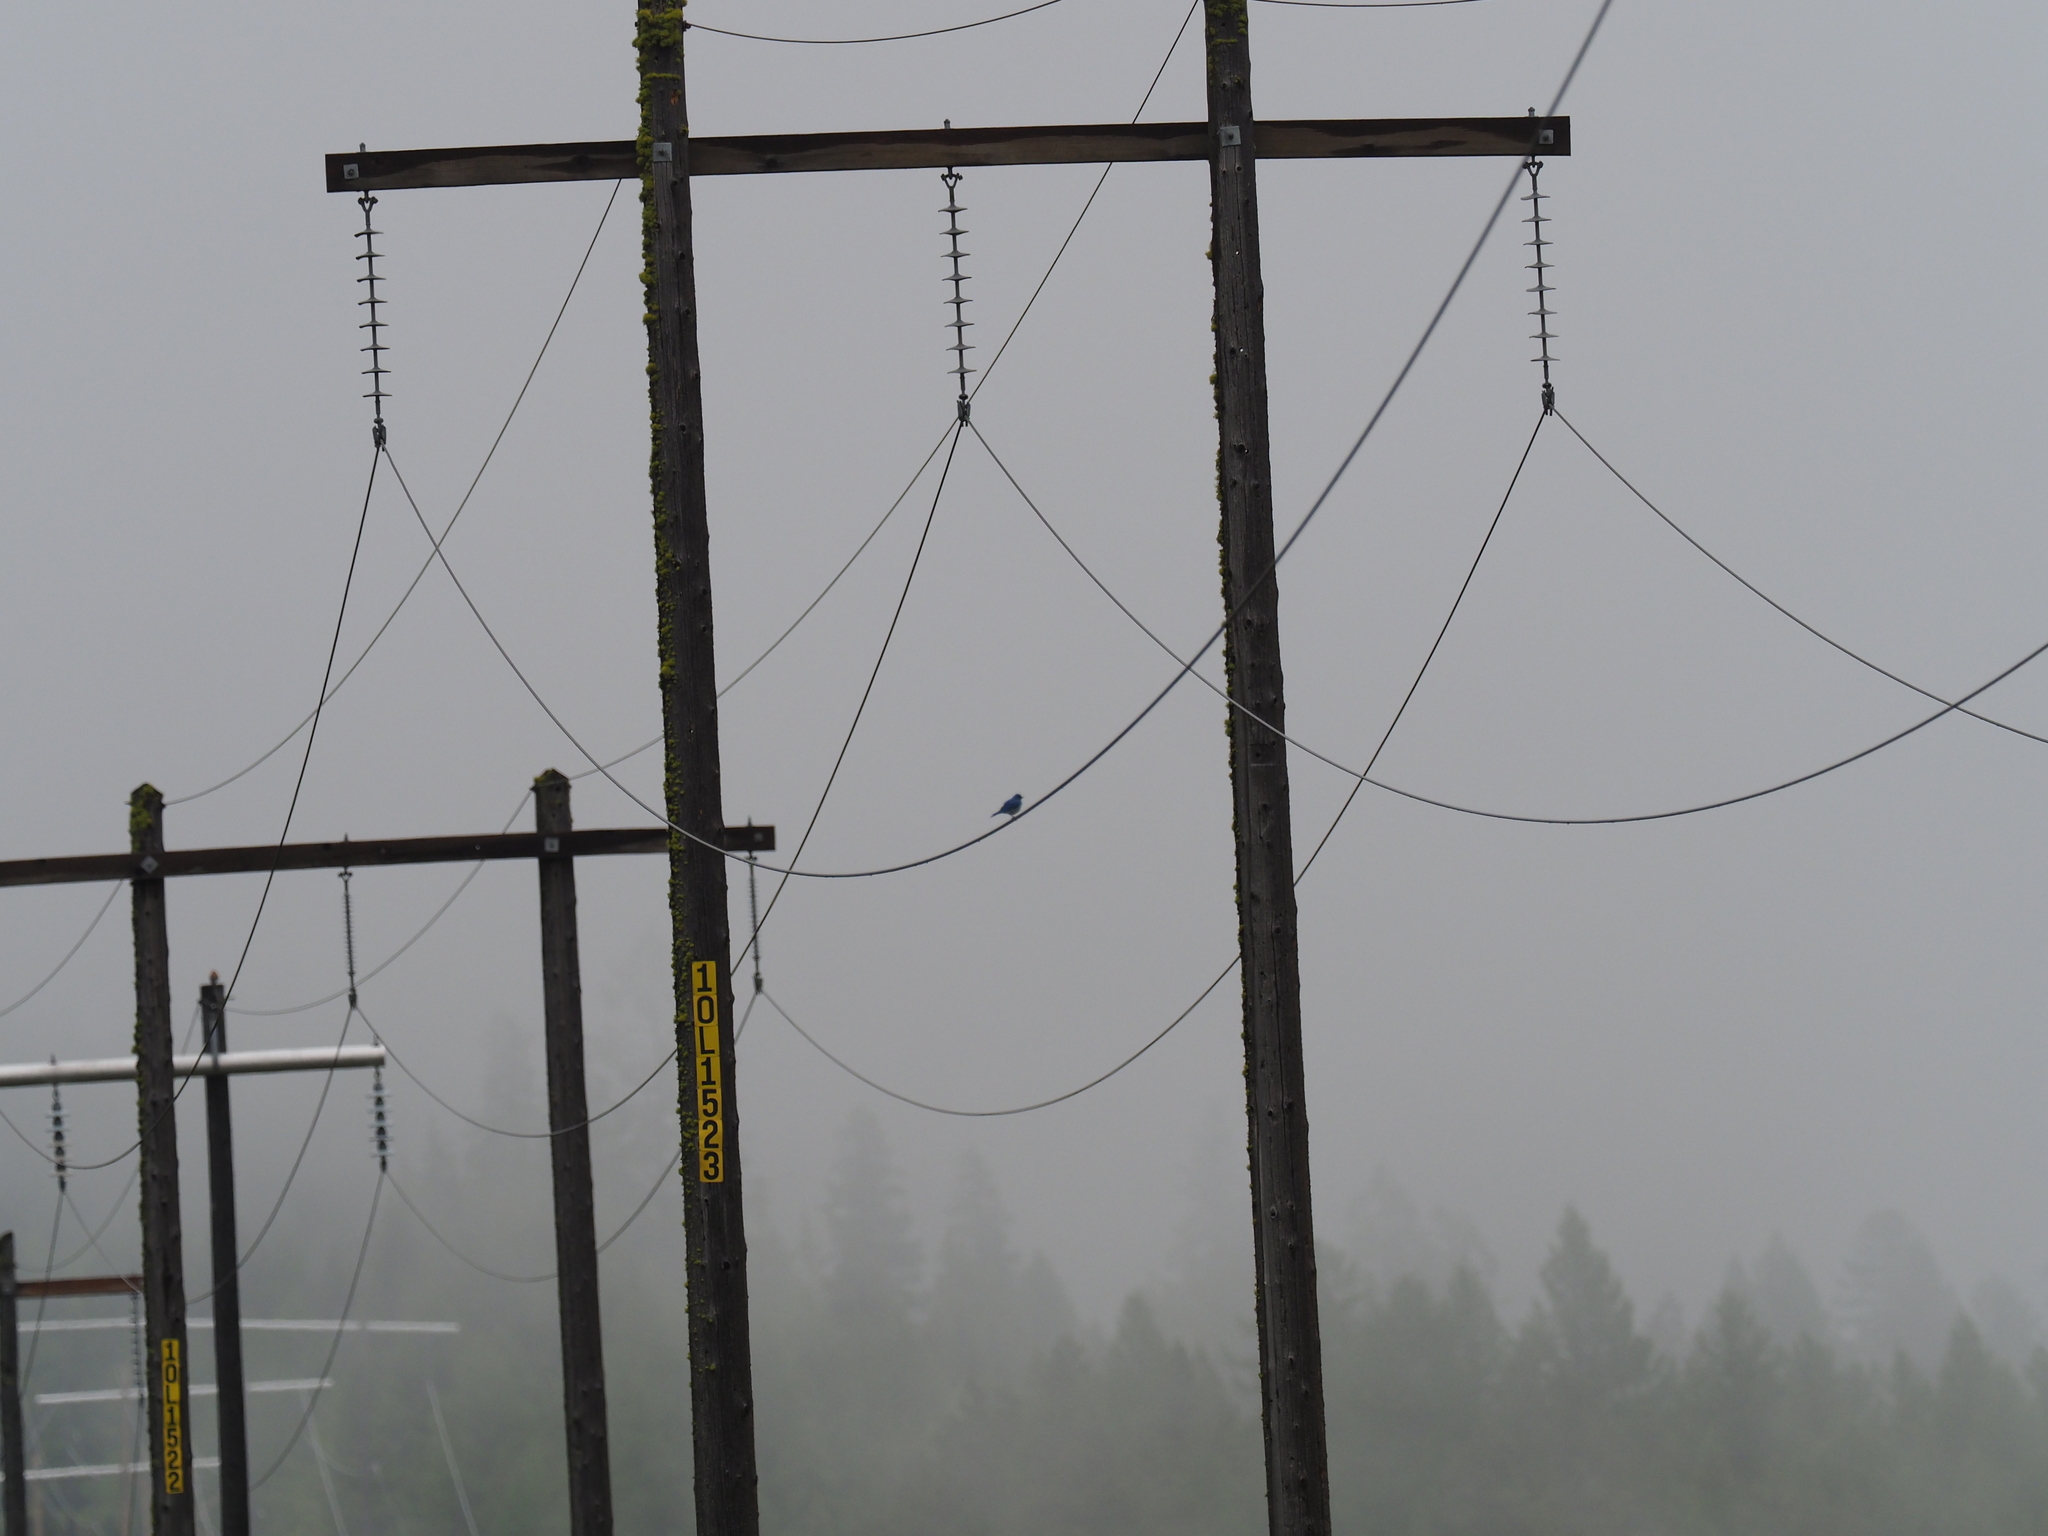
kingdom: Animalia
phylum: Chordata
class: Aves
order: Passeriformes
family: Turdidae
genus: Sialia
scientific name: Sialia currucoides
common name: Mountain bluebird
